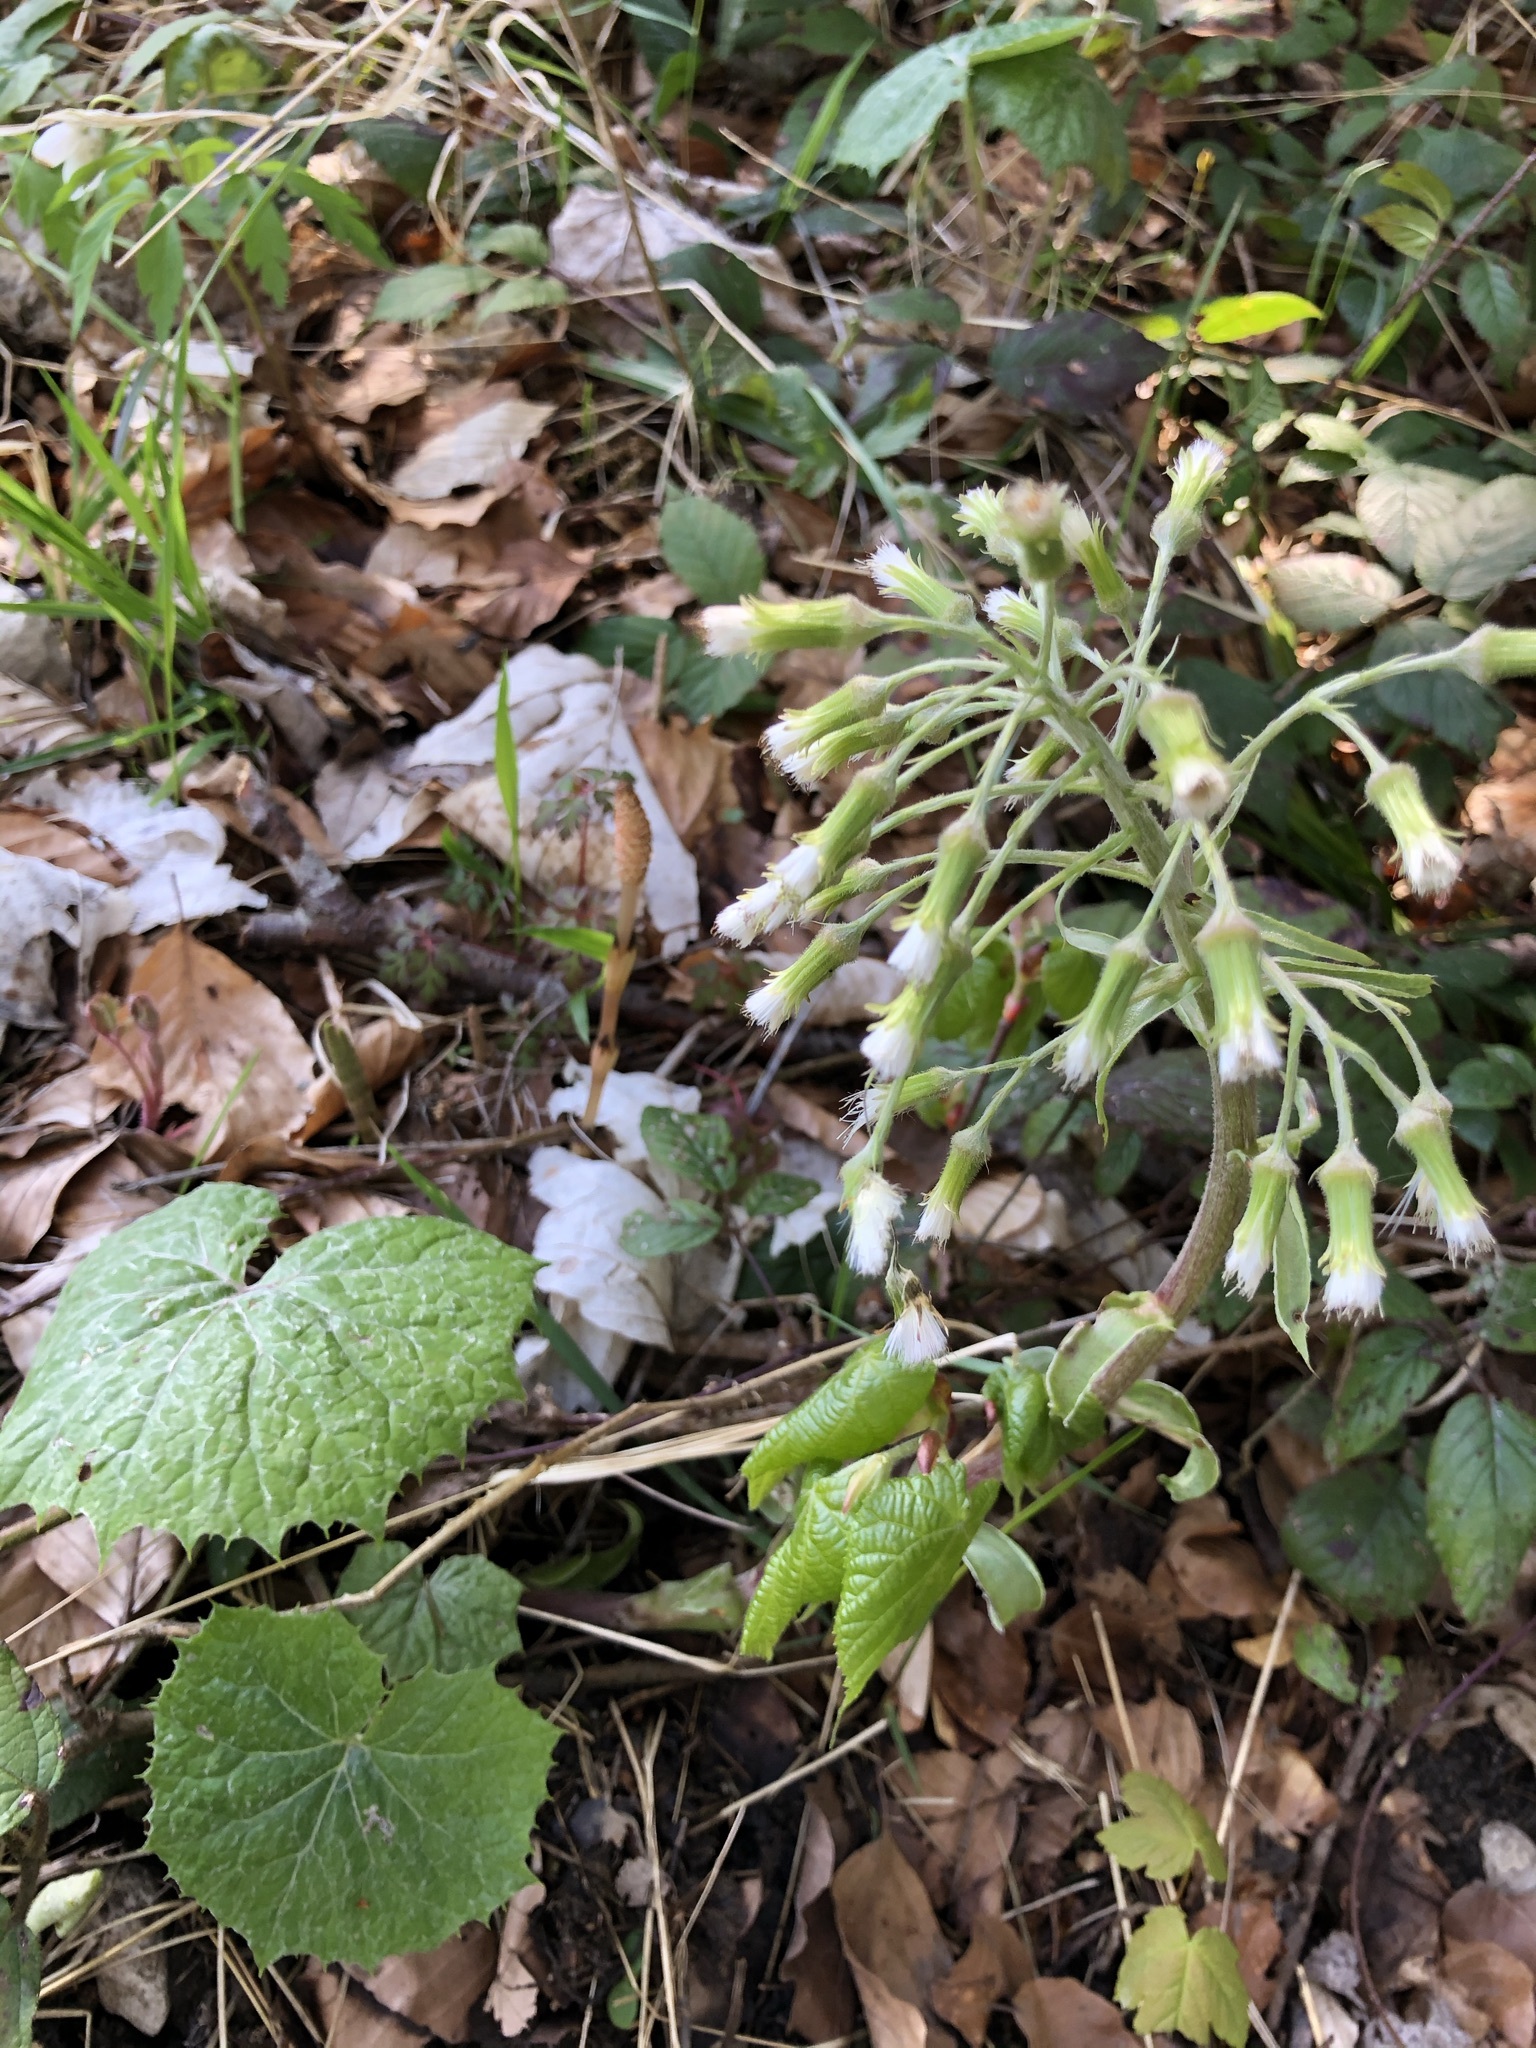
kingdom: Plantae
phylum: Tracheophyta
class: Magnoliopsida
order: Asterales
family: Asteraceae
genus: Petasites
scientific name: Petasites albus
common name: White butterbur
